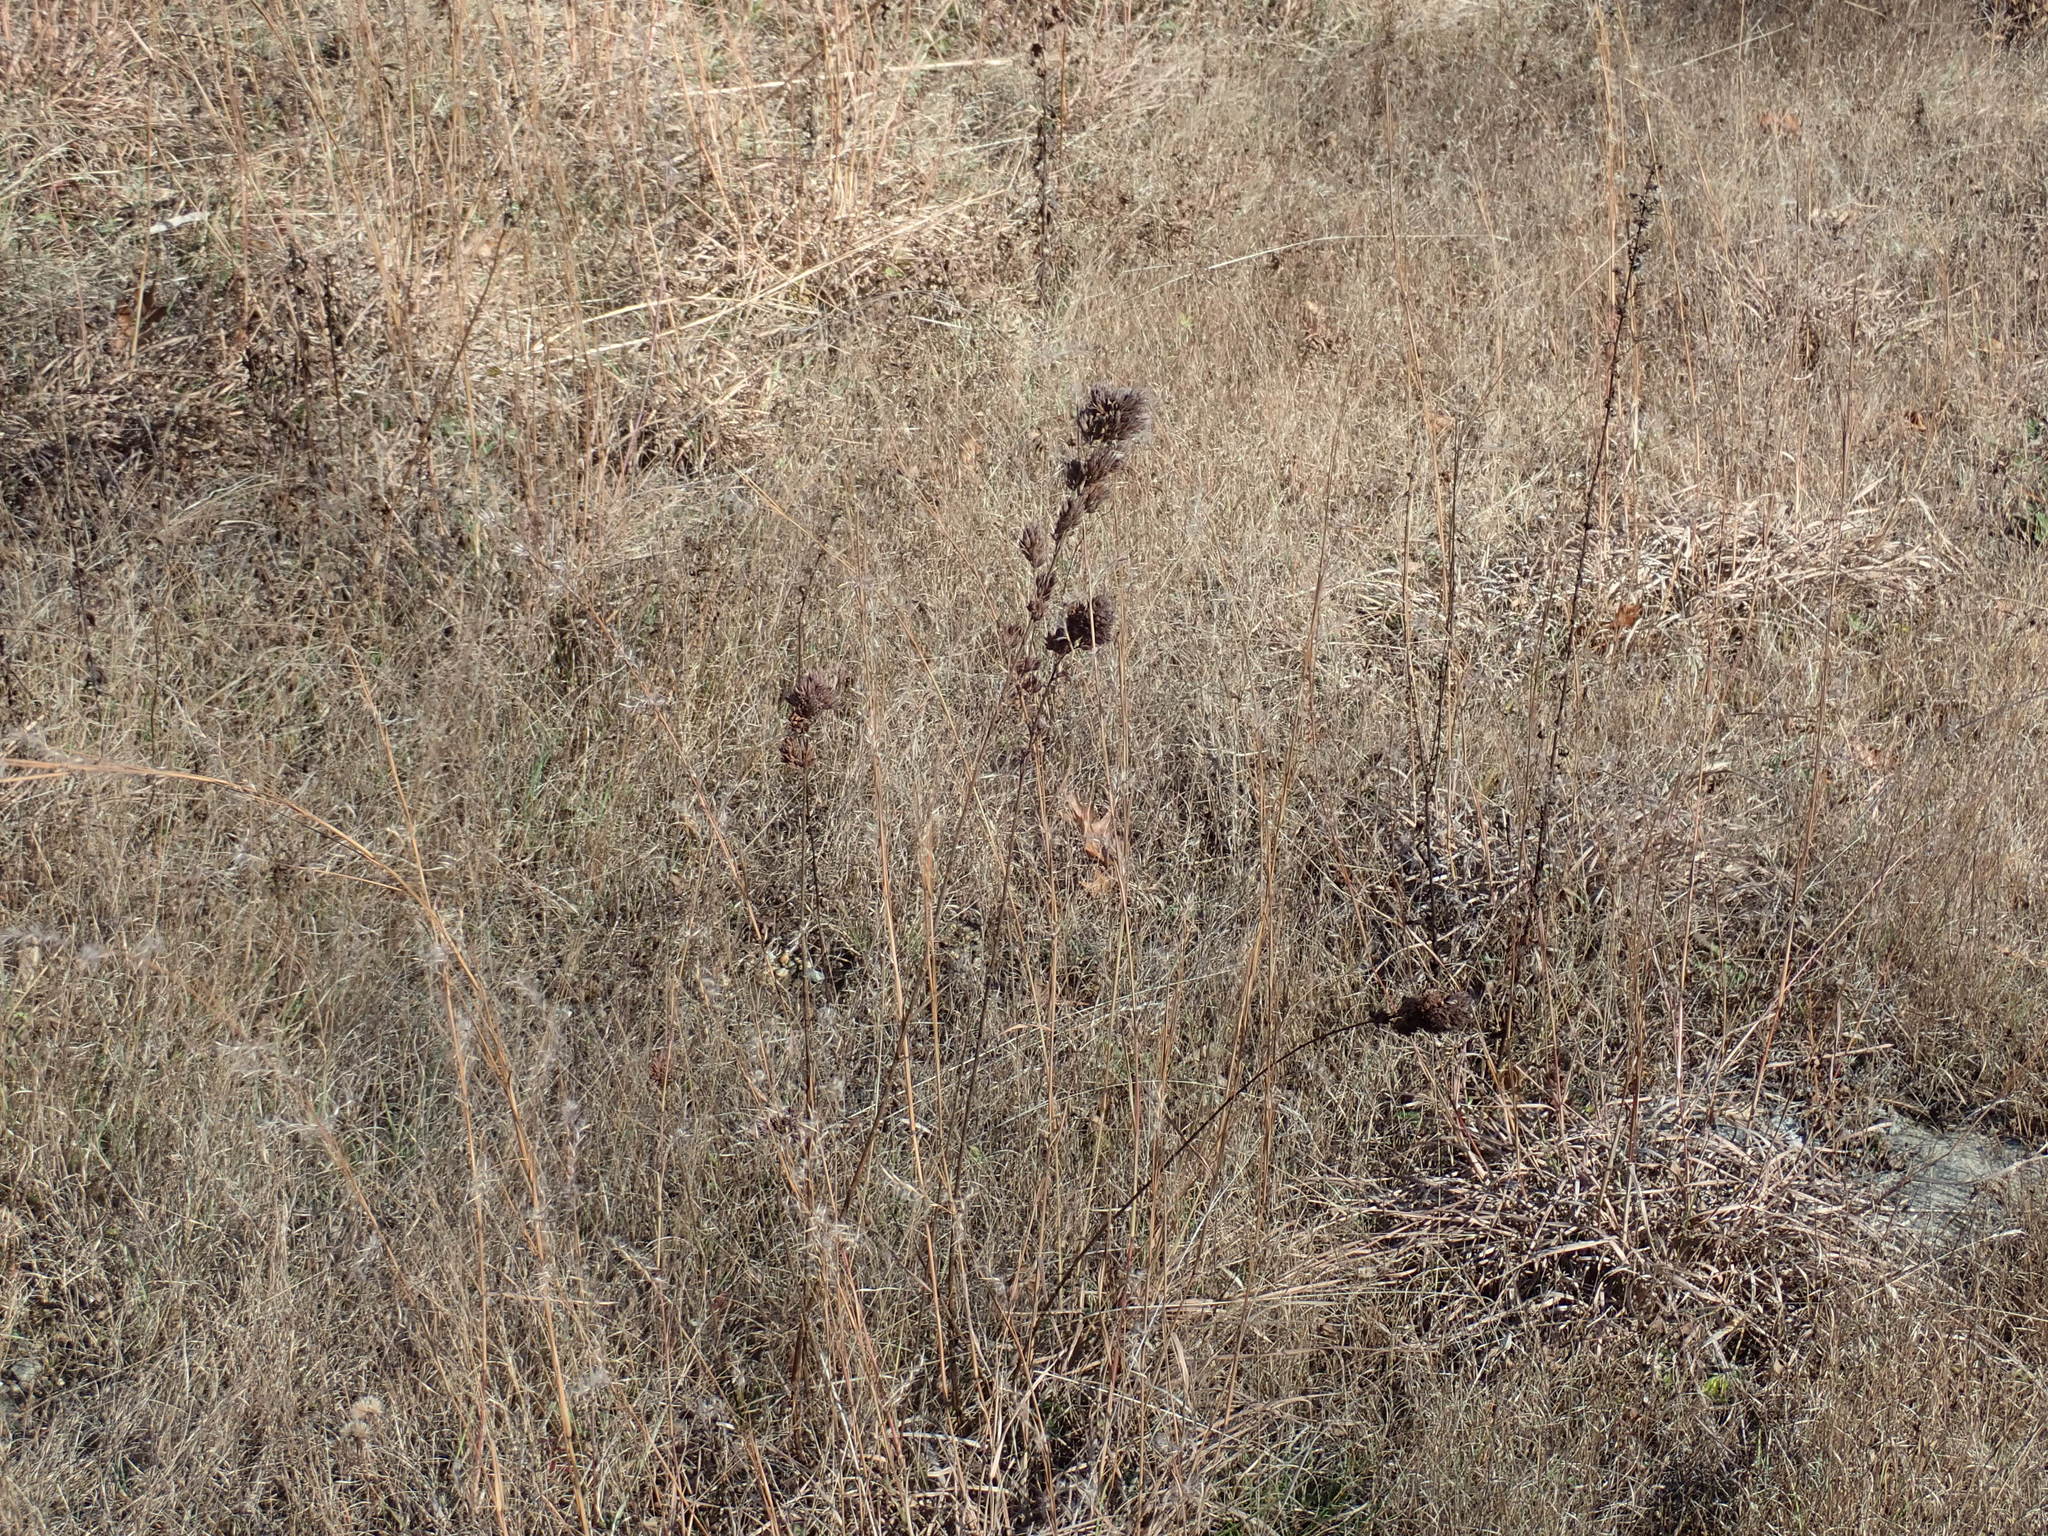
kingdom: Plantae
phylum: Tracheophyta
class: Magnoliopsida
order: Fabales
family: Fabaceae
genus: Lespedeza
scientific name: Lespedeza capitata
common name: Dusty clover
